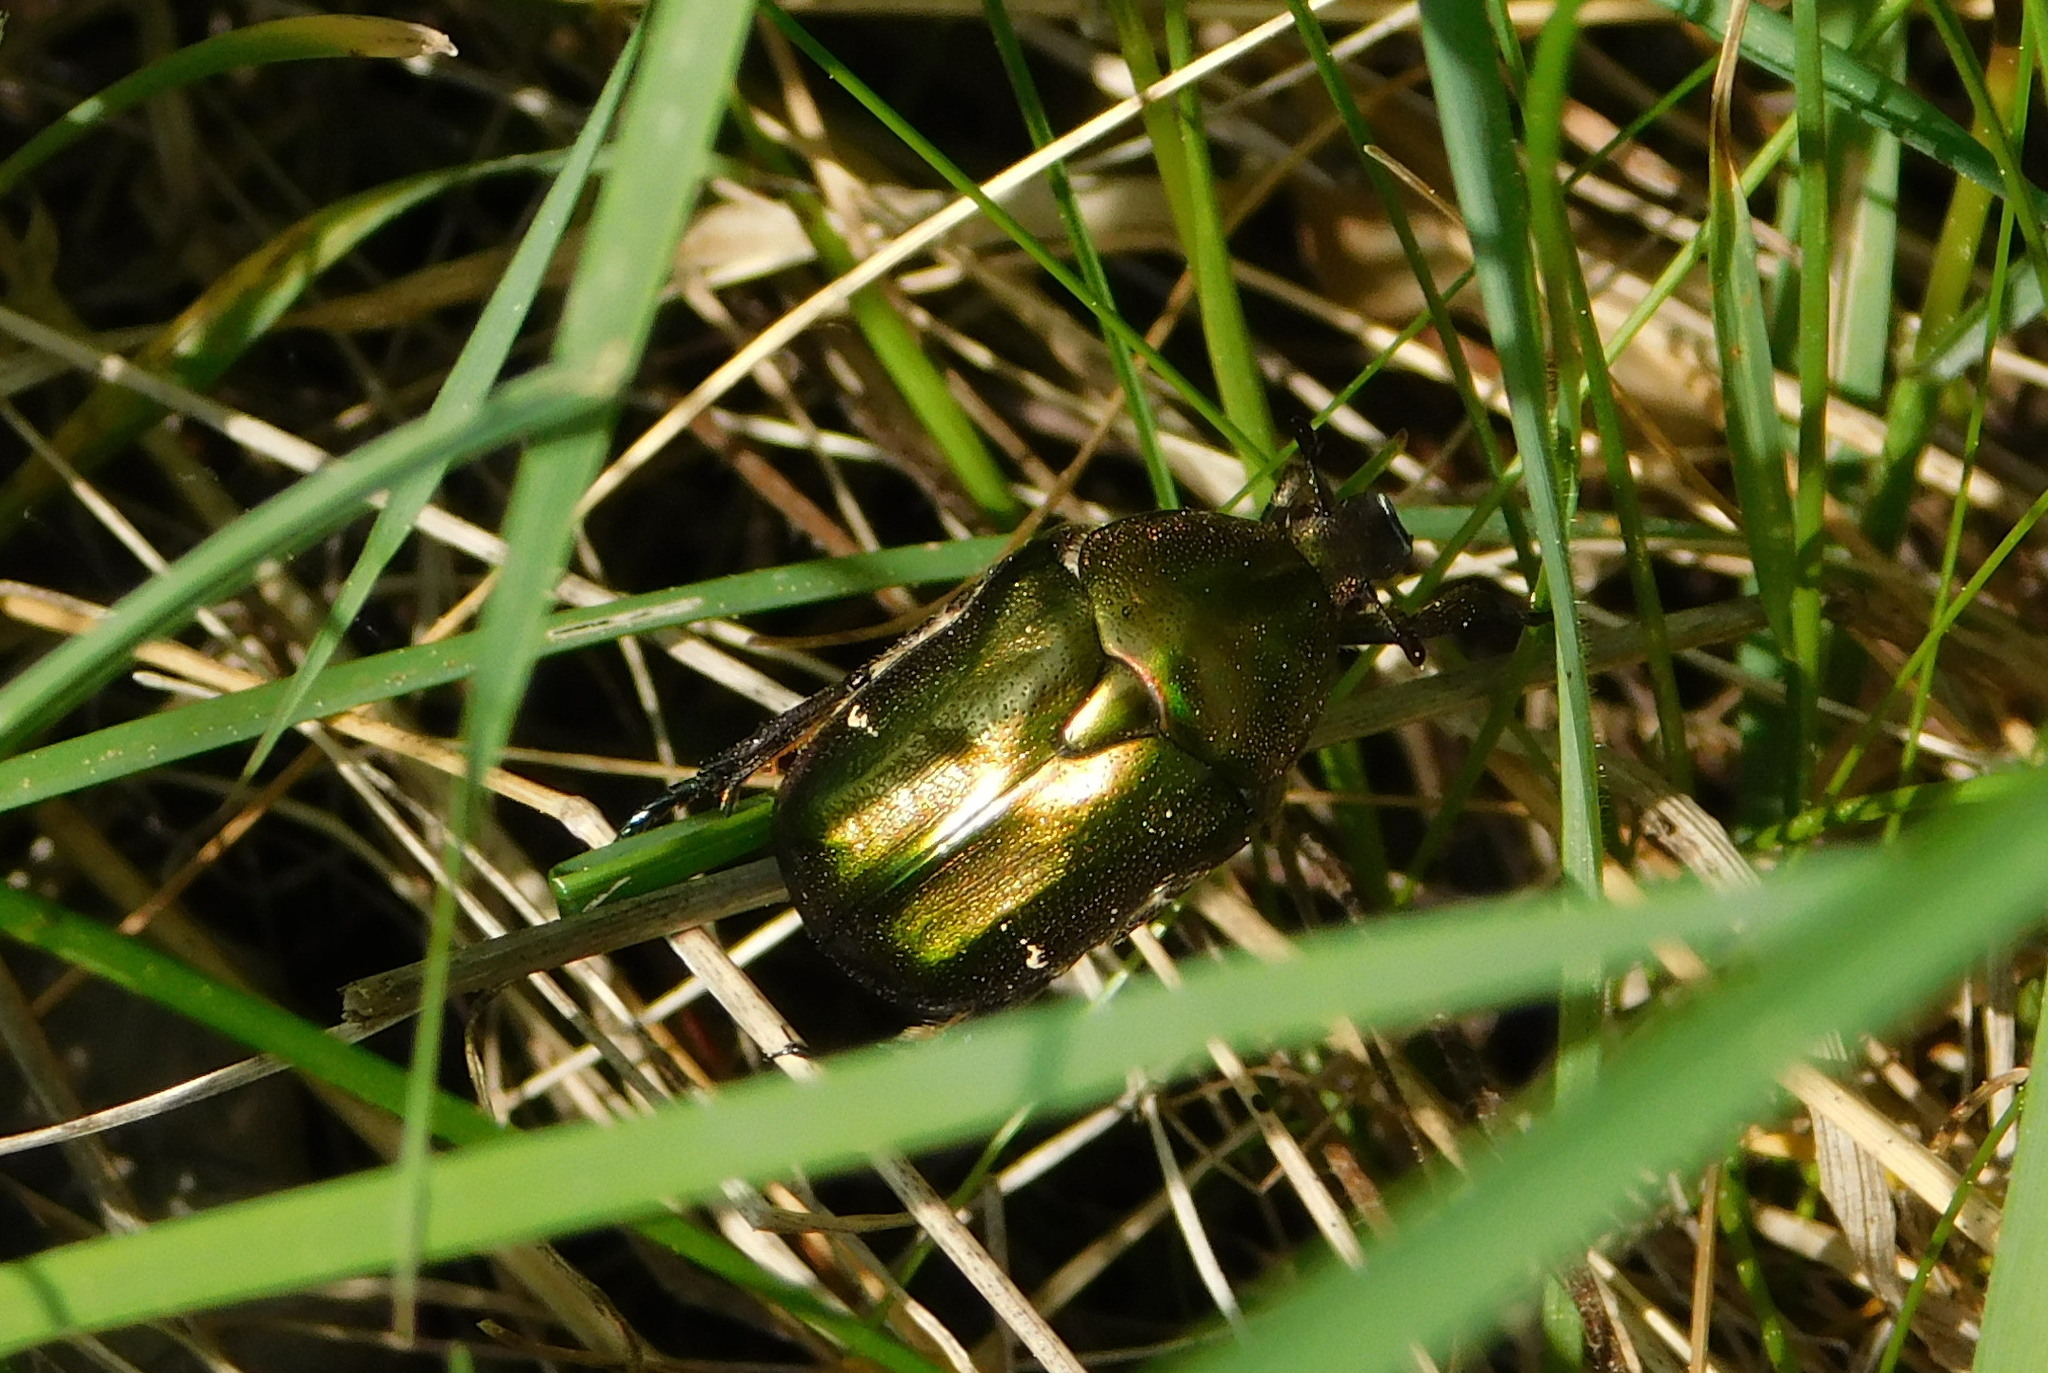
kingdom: Animalia
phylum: Arthropoda
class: Insecta
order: Coleoptera
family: Scarabaeidae
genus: Protaetia
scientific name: Protaetia cuprea
